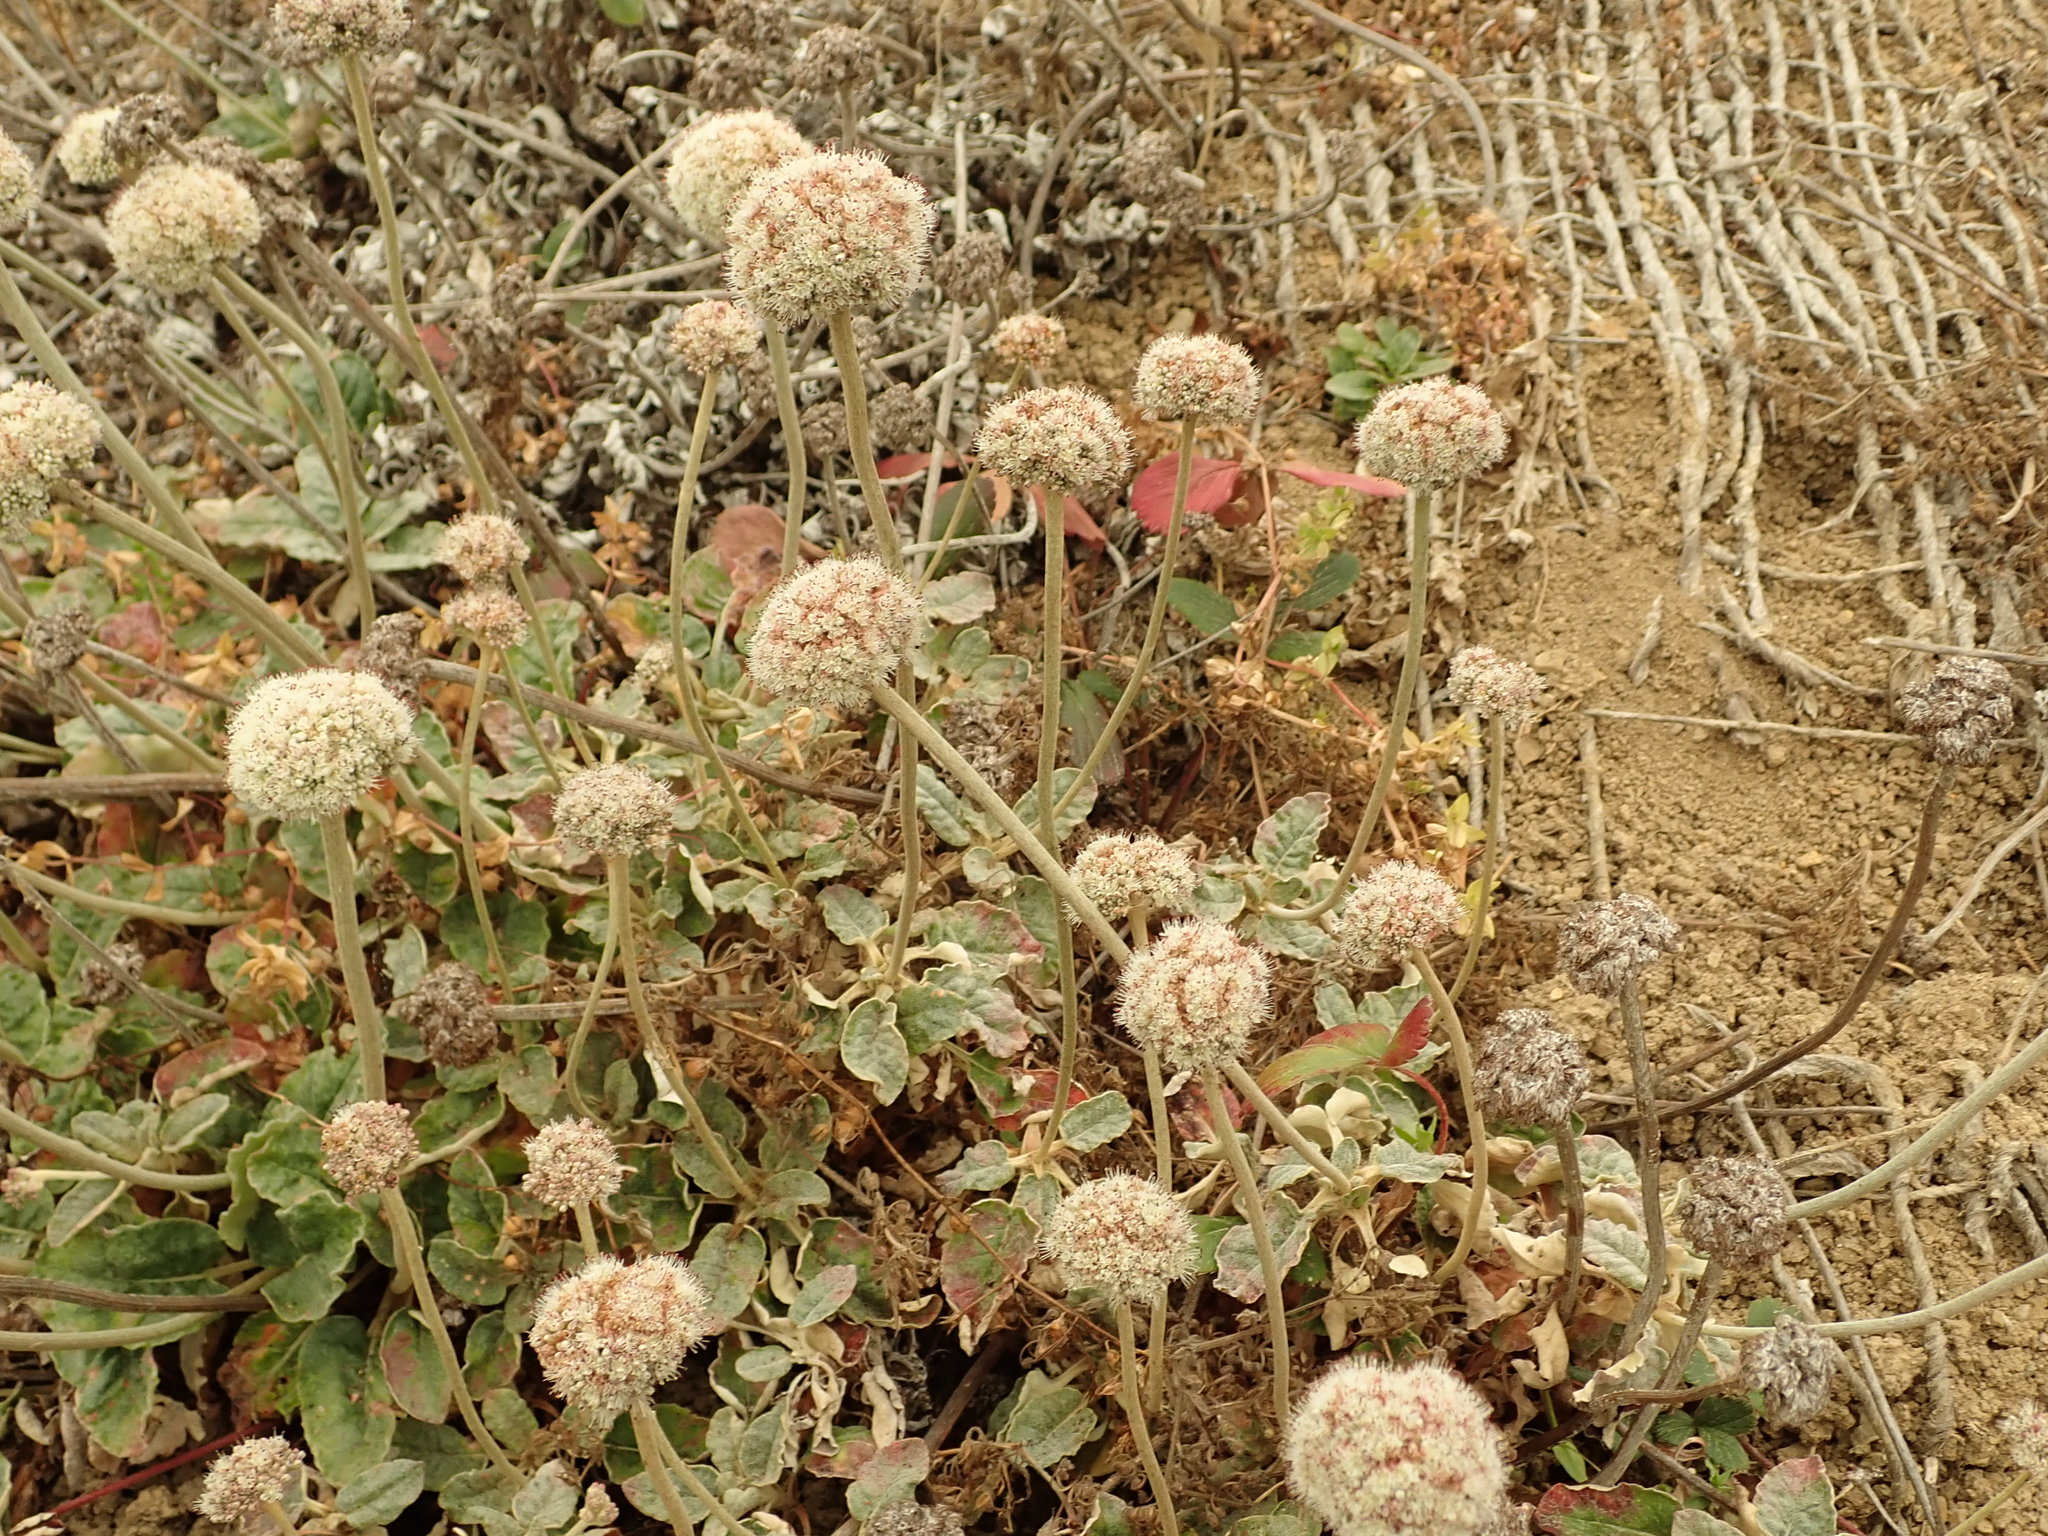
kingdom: Plantae
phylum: Tracheophyta
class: Magnoliopsida
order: Caryophyllales
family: Polygonaceae
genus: Eriogonum
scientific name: Eriogonum latifolium
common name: Seaside wild buckwheat
